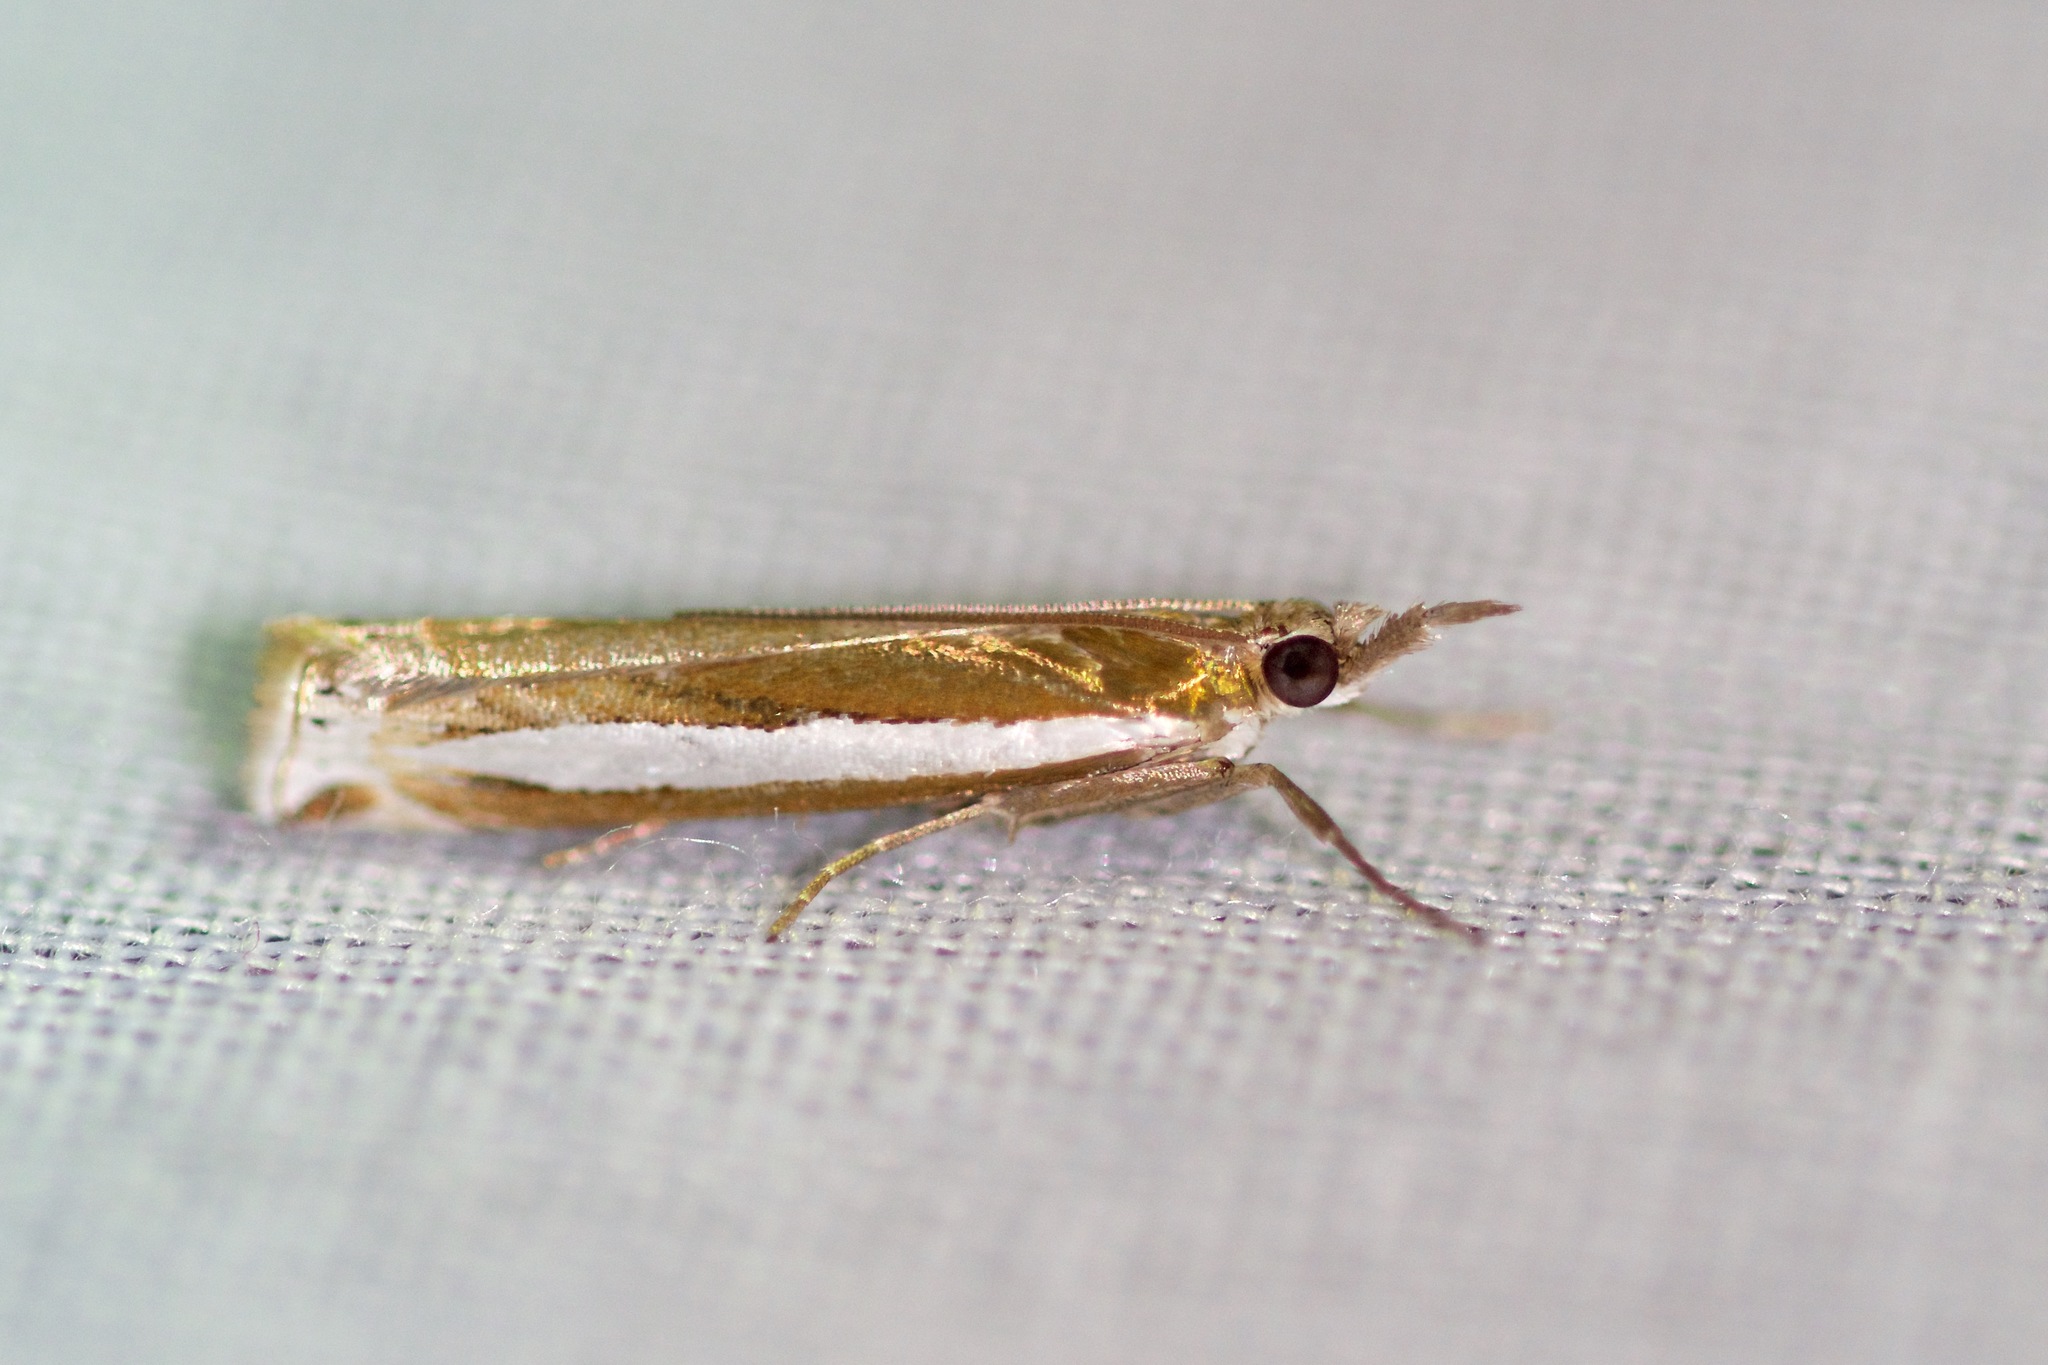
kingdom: Animalia
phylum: Arthropoda
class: Insecta
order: Lepidoptera
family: Crambidae
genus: Crambus
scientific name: Crambus praefectellus
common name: Common grass-veneer
